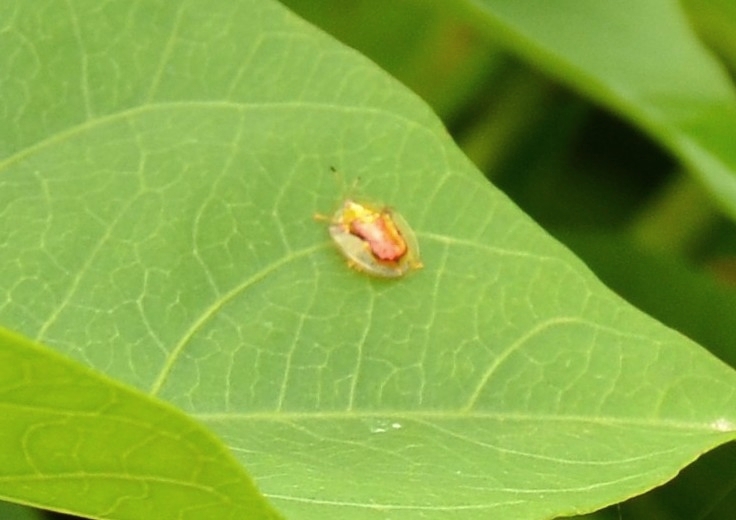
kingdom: Animalia
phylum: Arthropoda
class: Insecta
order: Coleoptera
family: Chrysomelidae
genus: Aspidimorpha
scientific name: Aspidimorpha furcata
